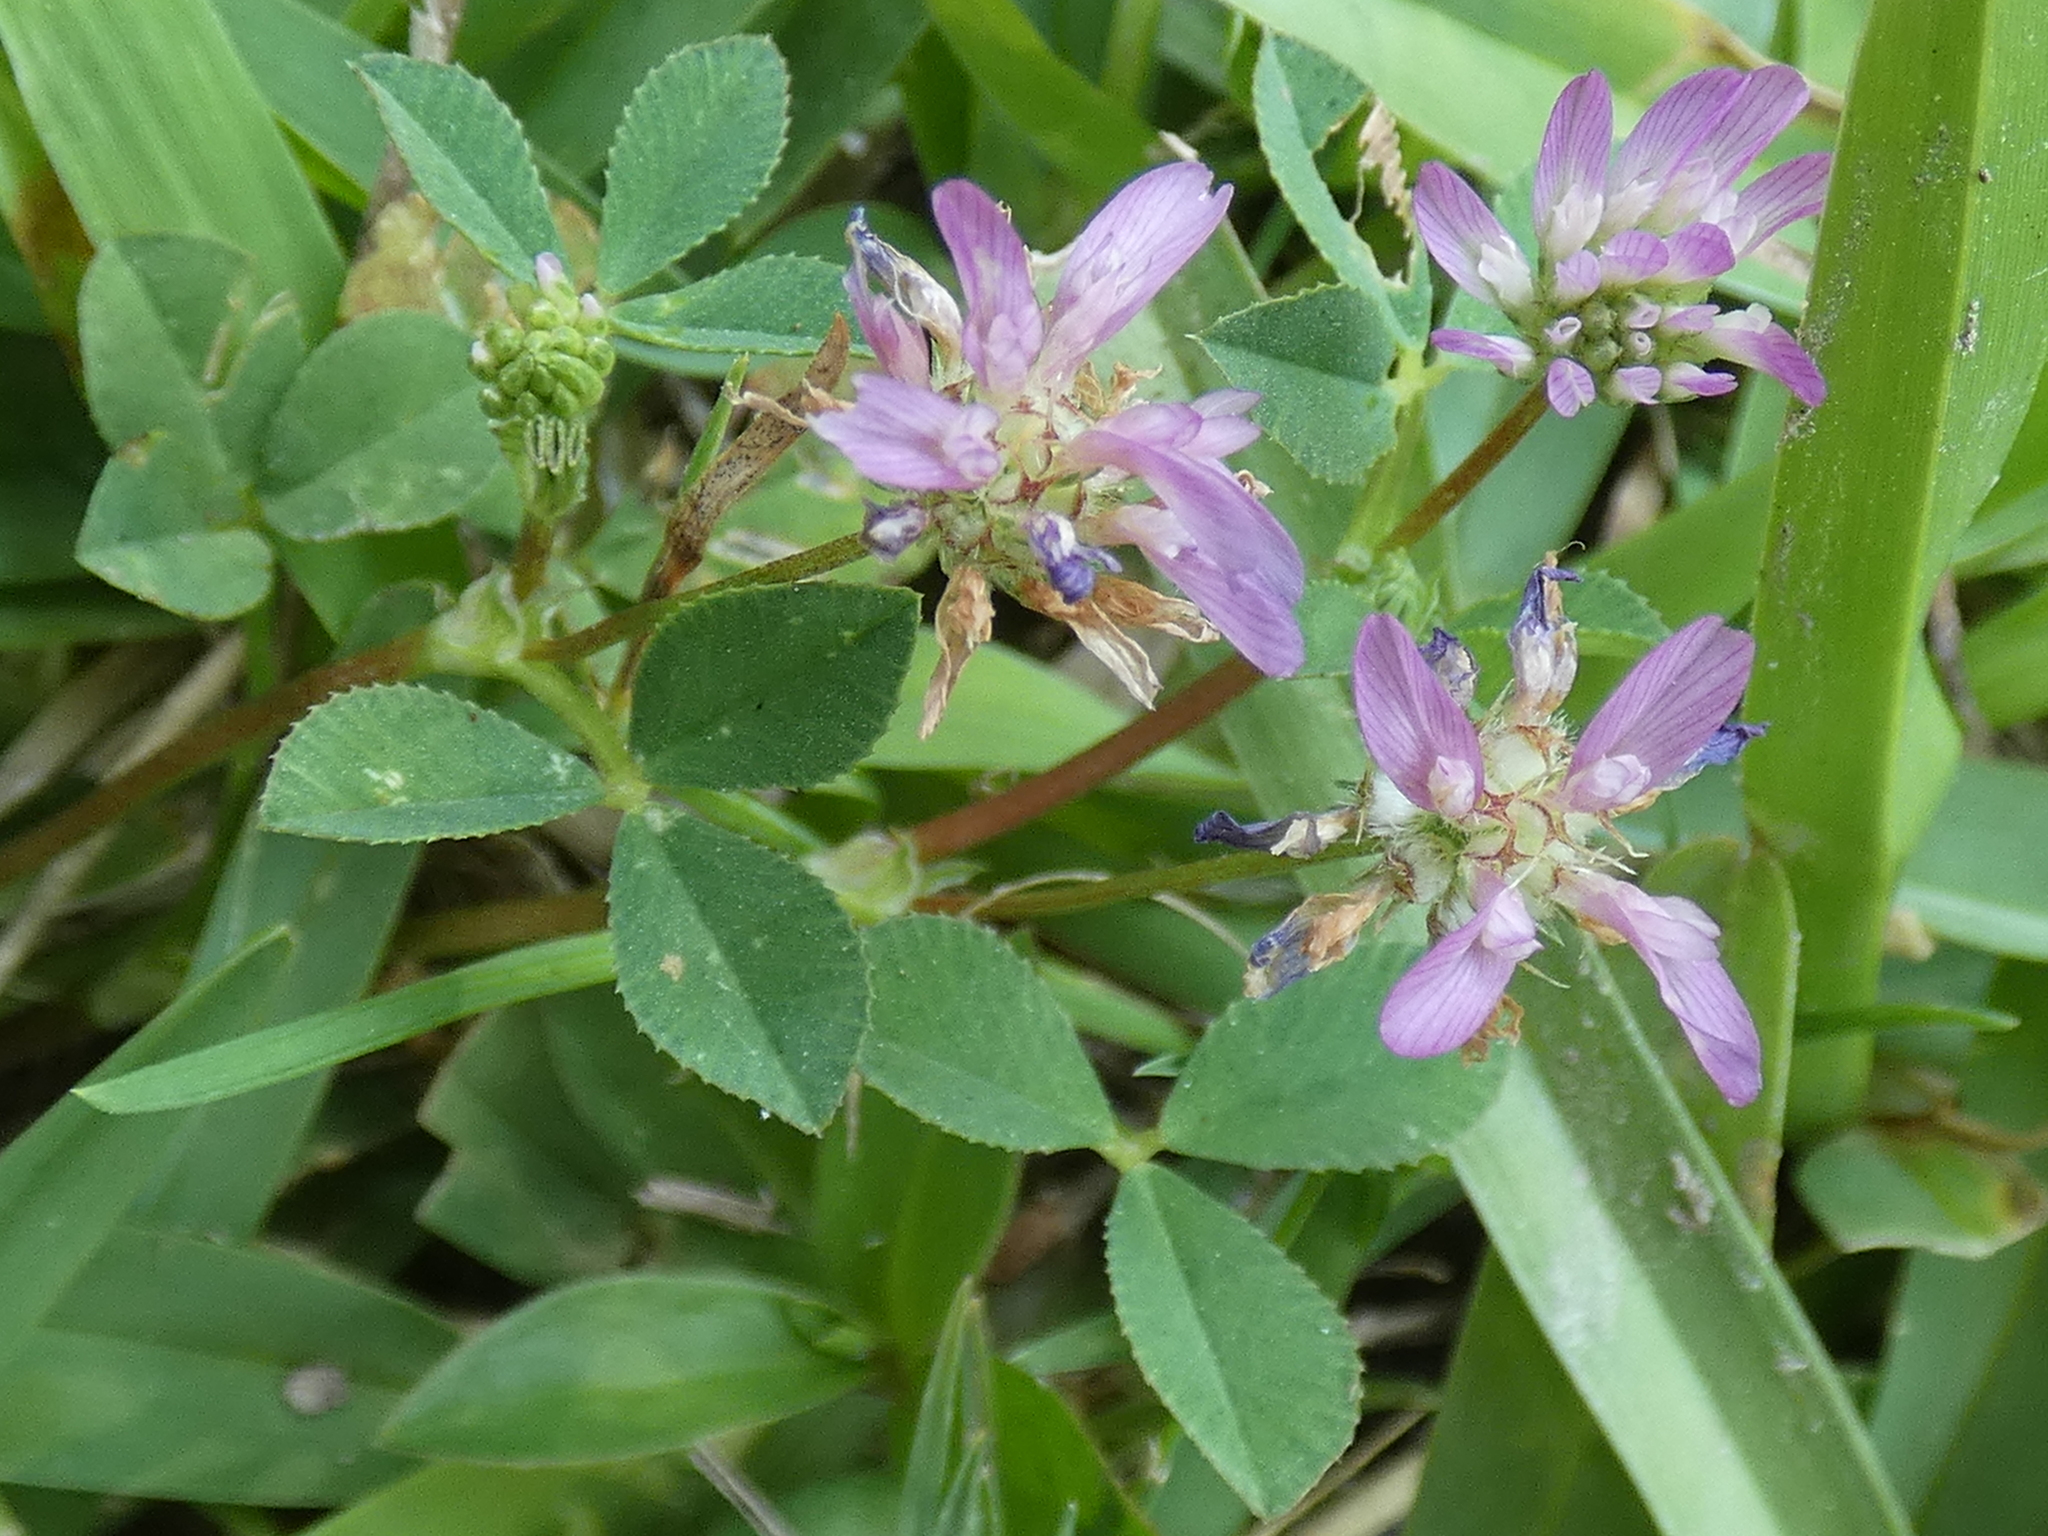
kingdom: Plantae
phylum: Tracheophyta
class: Magnoliopsida
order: Fabales
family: Fabaceae
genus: Trifolium
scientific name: Trifolium resupinatum
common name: Reversed clover
